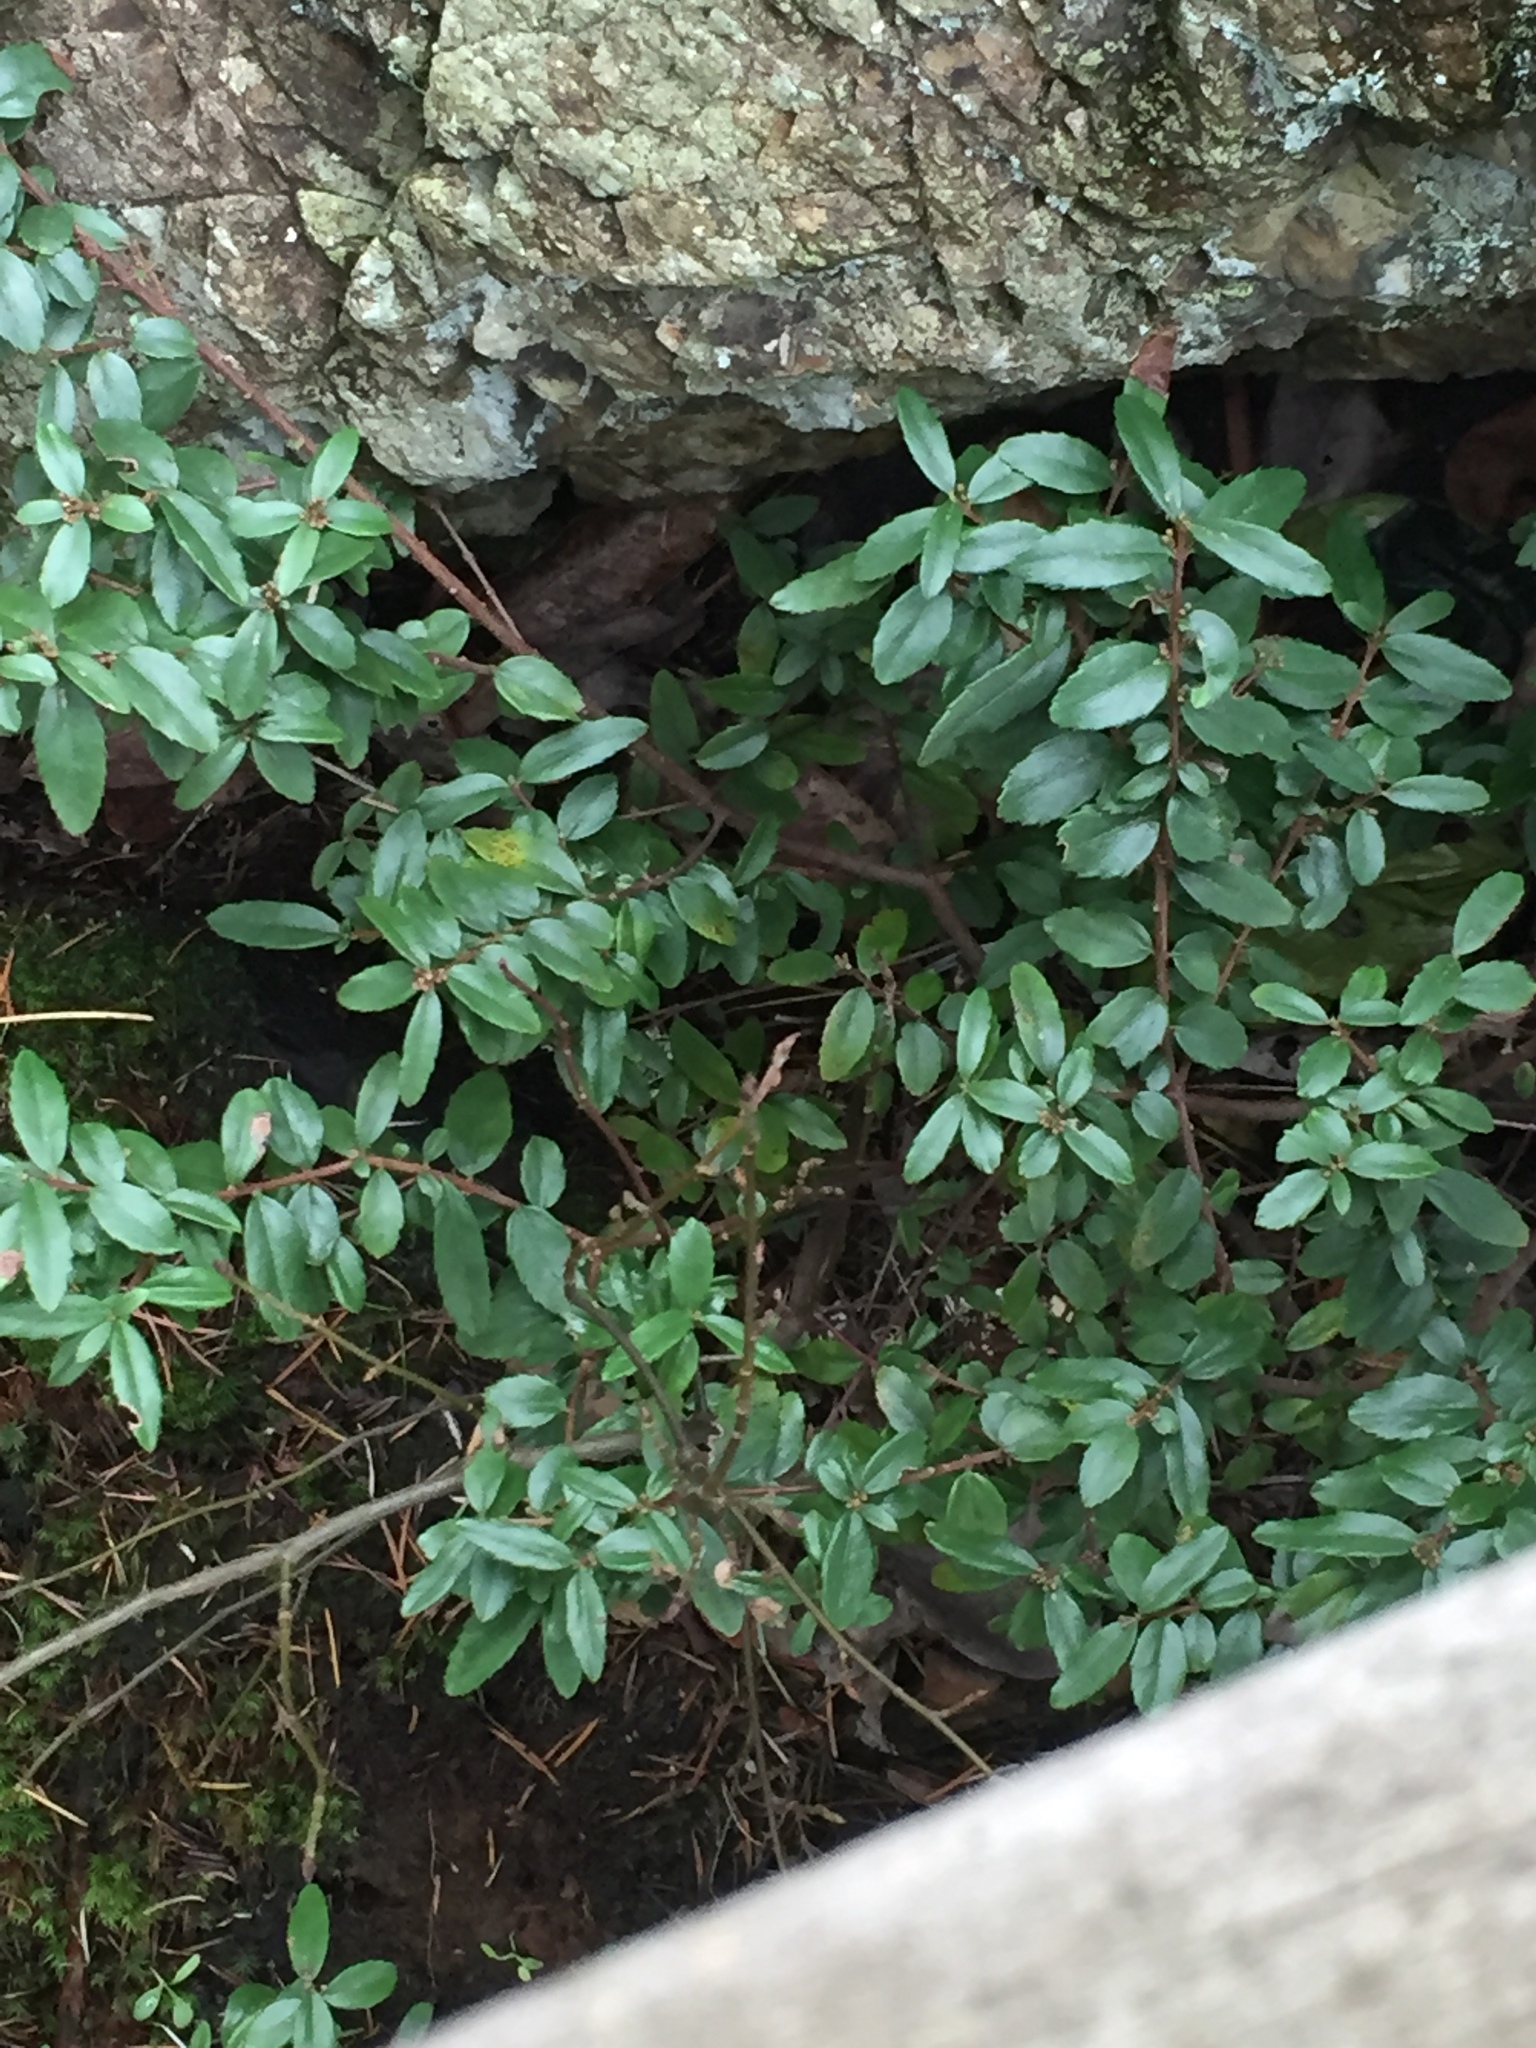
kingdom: Plantae
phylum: Tracheophyta
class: Magnoliopsida
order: Celastrales
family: Celastraceae
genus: Paxistima
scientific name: Paxistima myrsinites
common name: Mountain-lover
